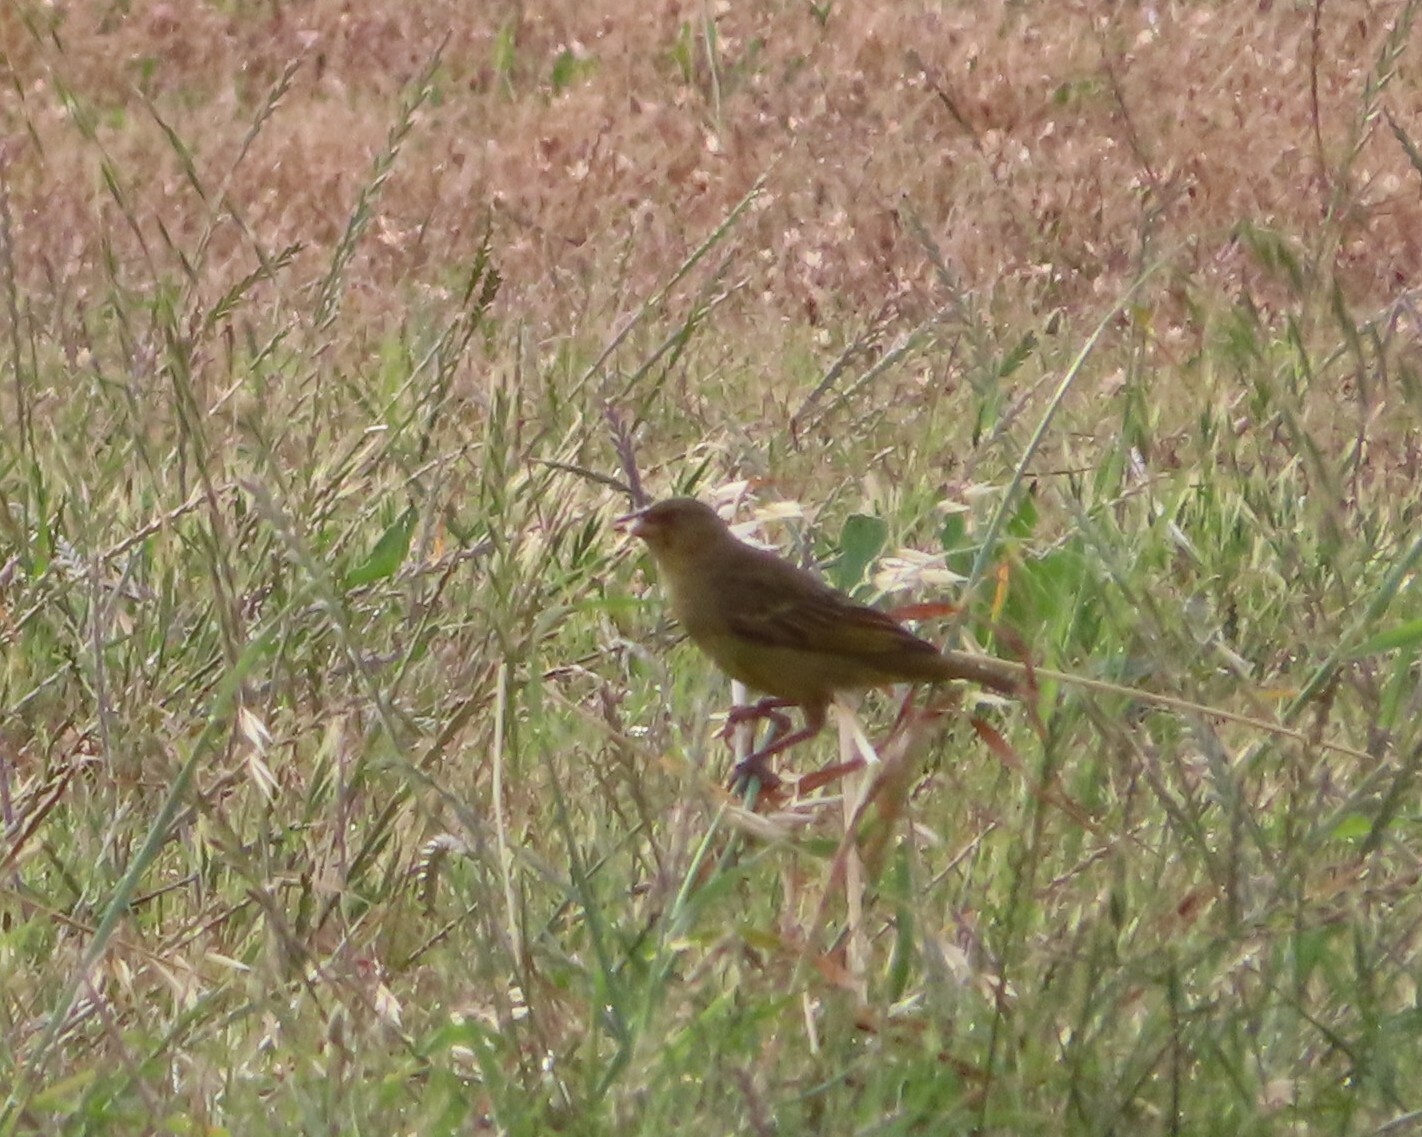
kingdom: Animalia
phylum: Chordata
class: Aves
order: Passeriformes
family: Fringillidae
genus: Serinus
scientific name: Serinus canicollis
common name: Cape canary
